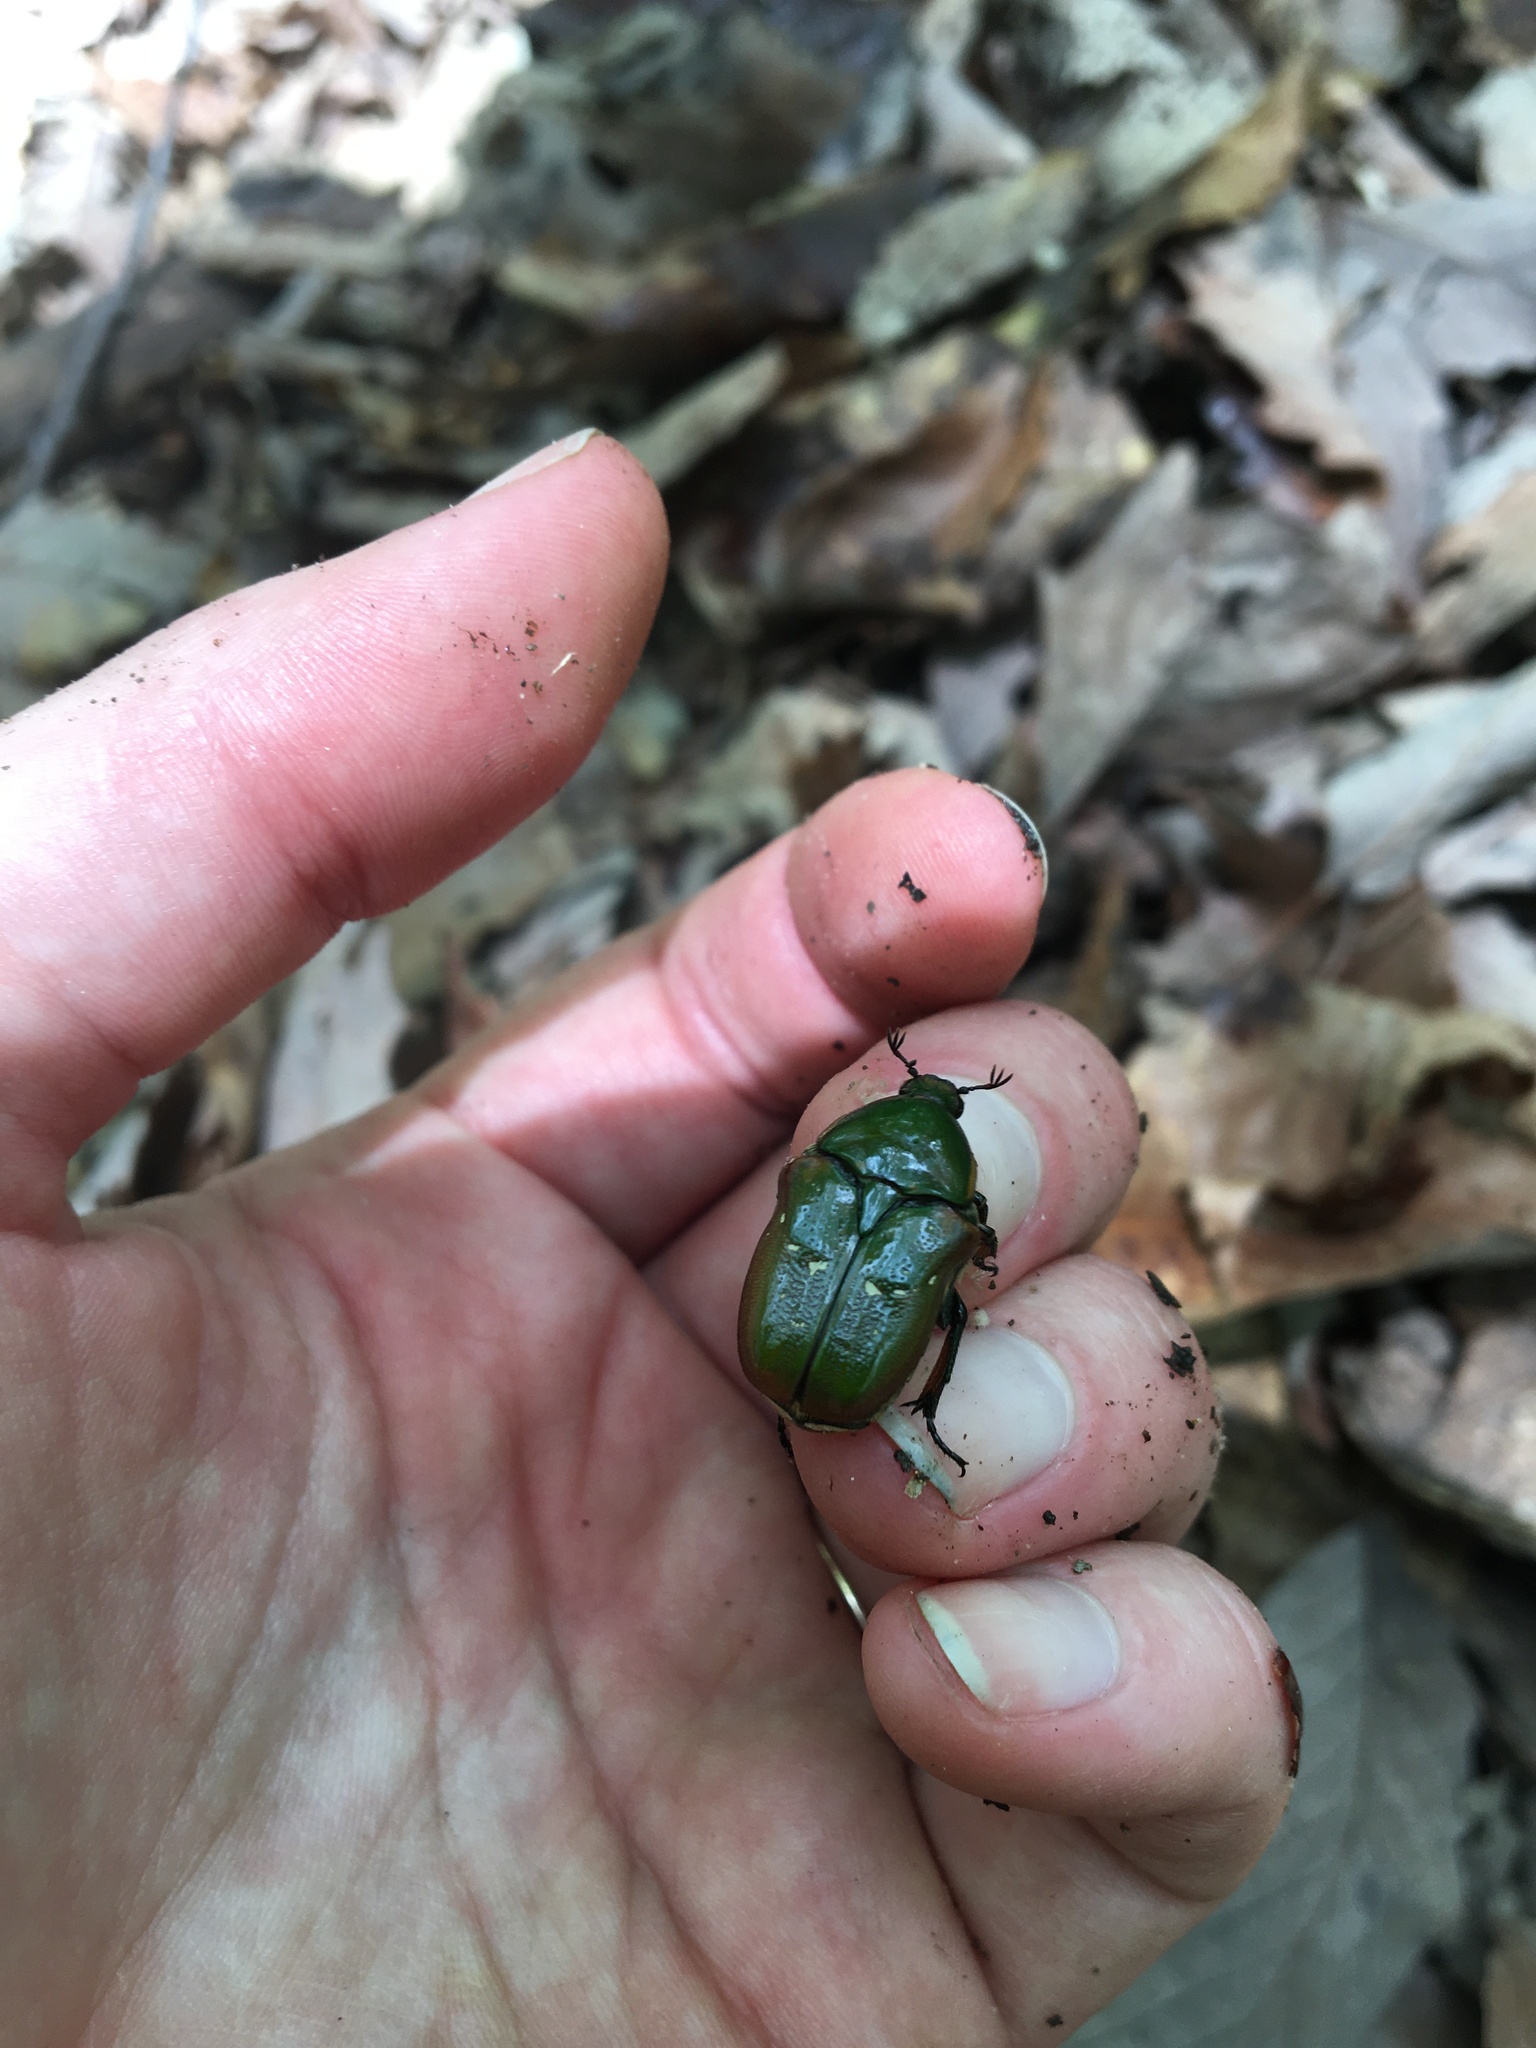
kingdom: Animalia
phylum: Arthropoda
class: Insecta
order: Coleoptera
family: Scarabaeidae
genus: Euphoria
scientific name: Euphoria fulgida
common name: Emerald euphoria
